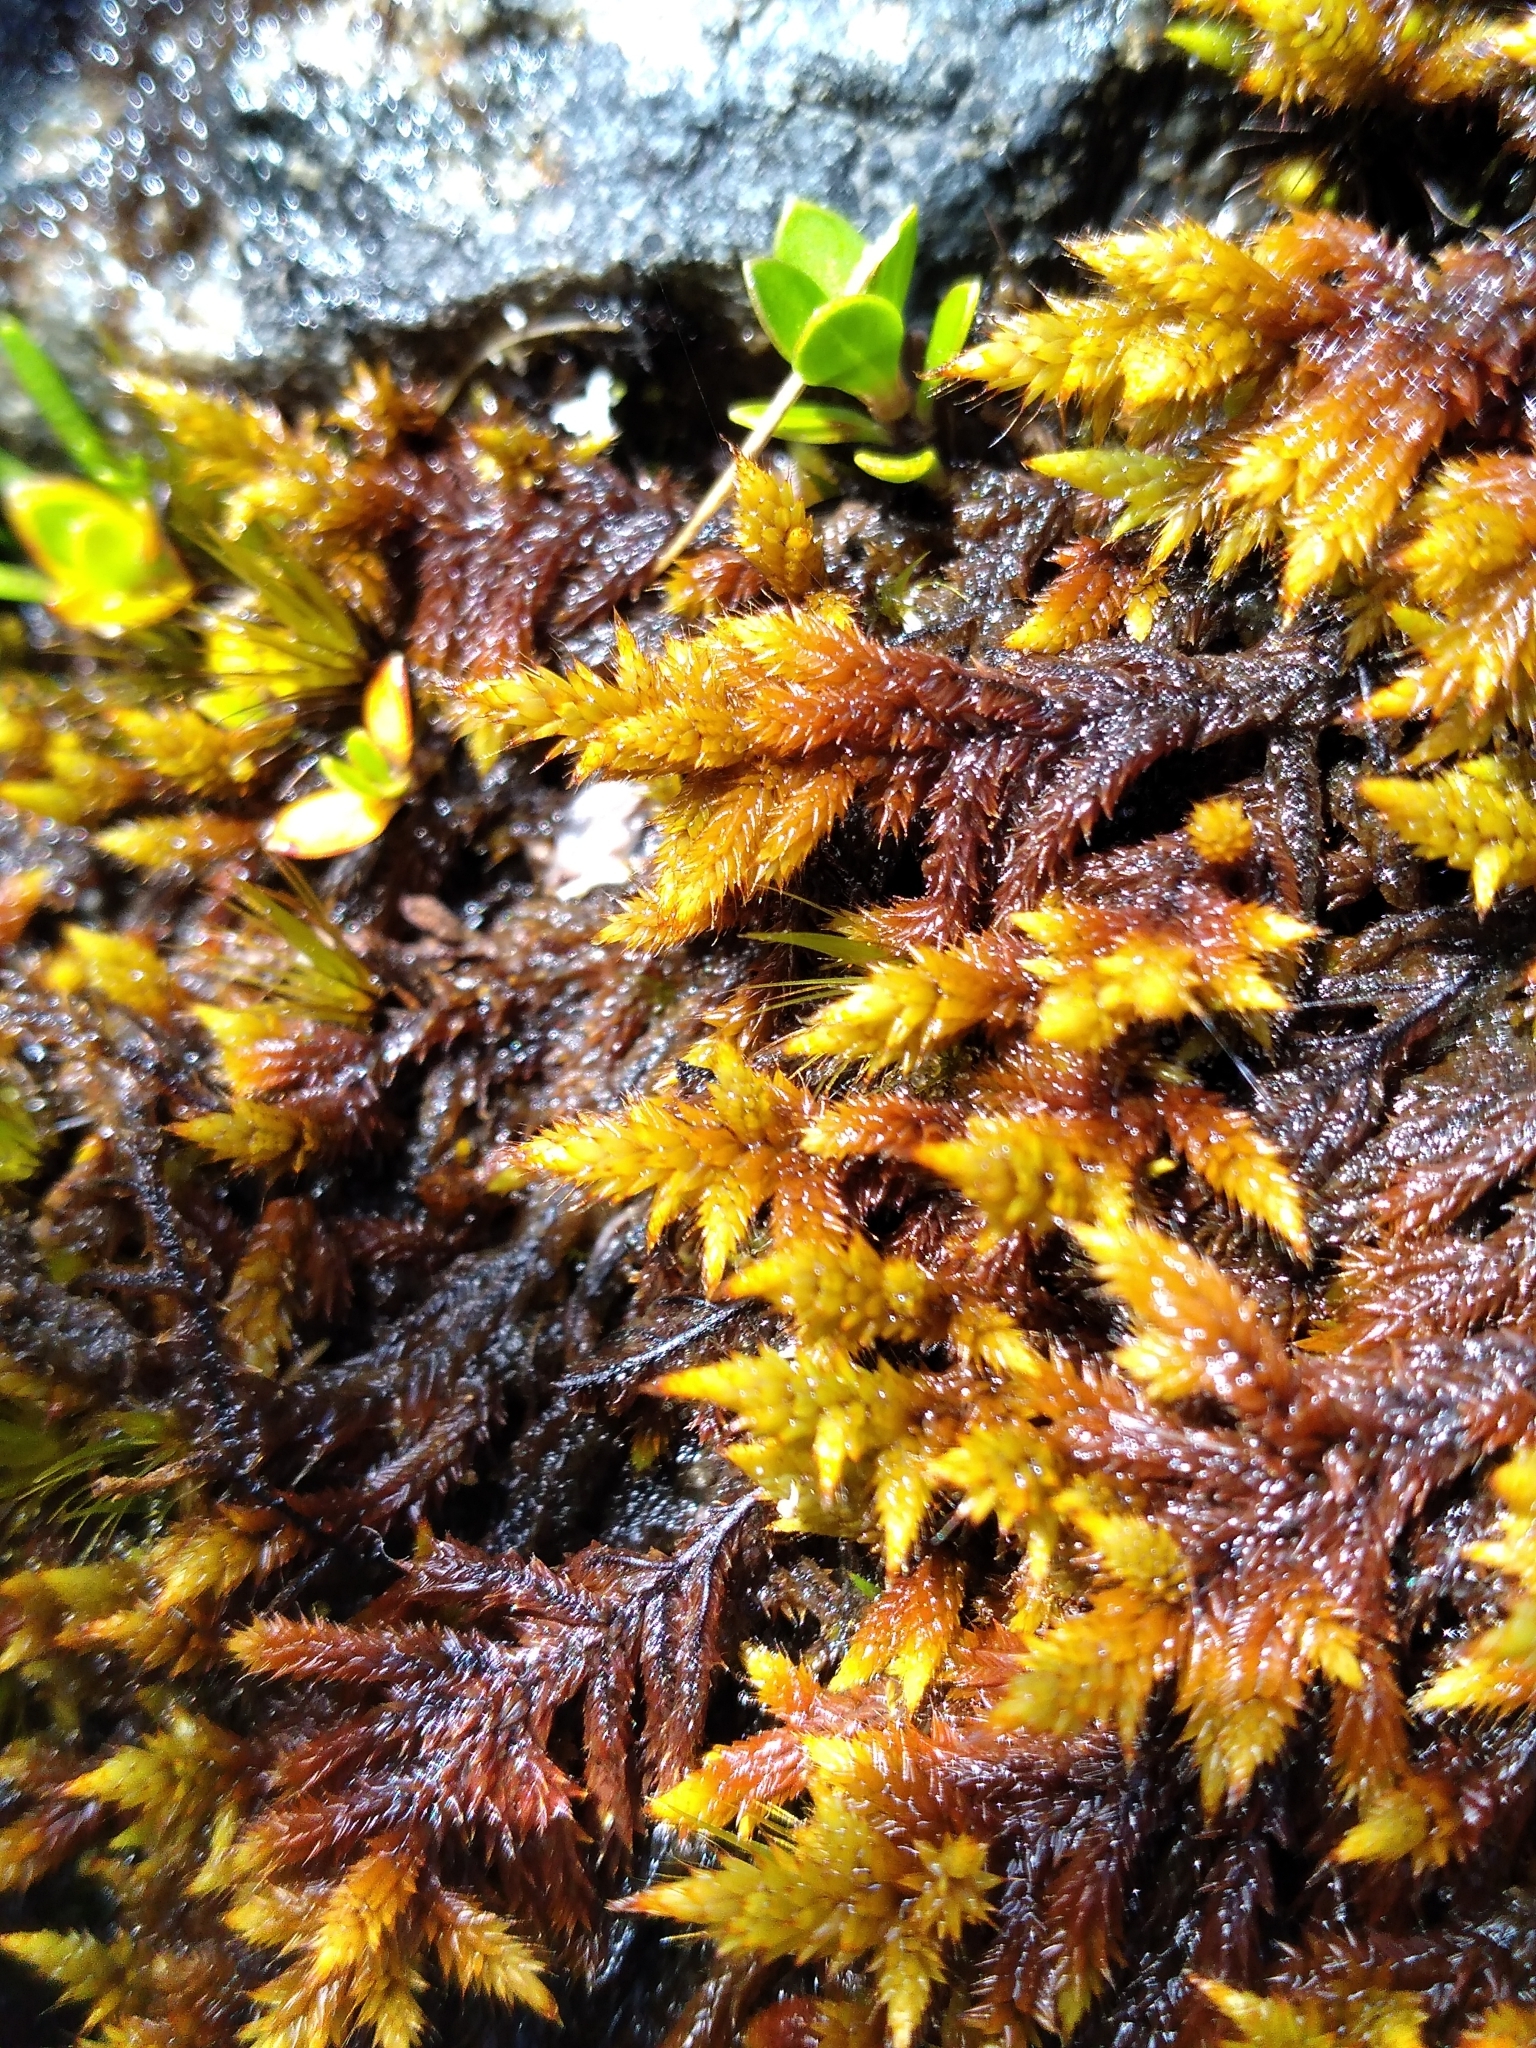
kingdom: Plantae
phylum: Bryophyta
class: Bryopsida
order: Hedwigiales
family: Hedwigiaceae
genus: Rhacocarpus
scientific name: Rhacocarpus purpurascens
